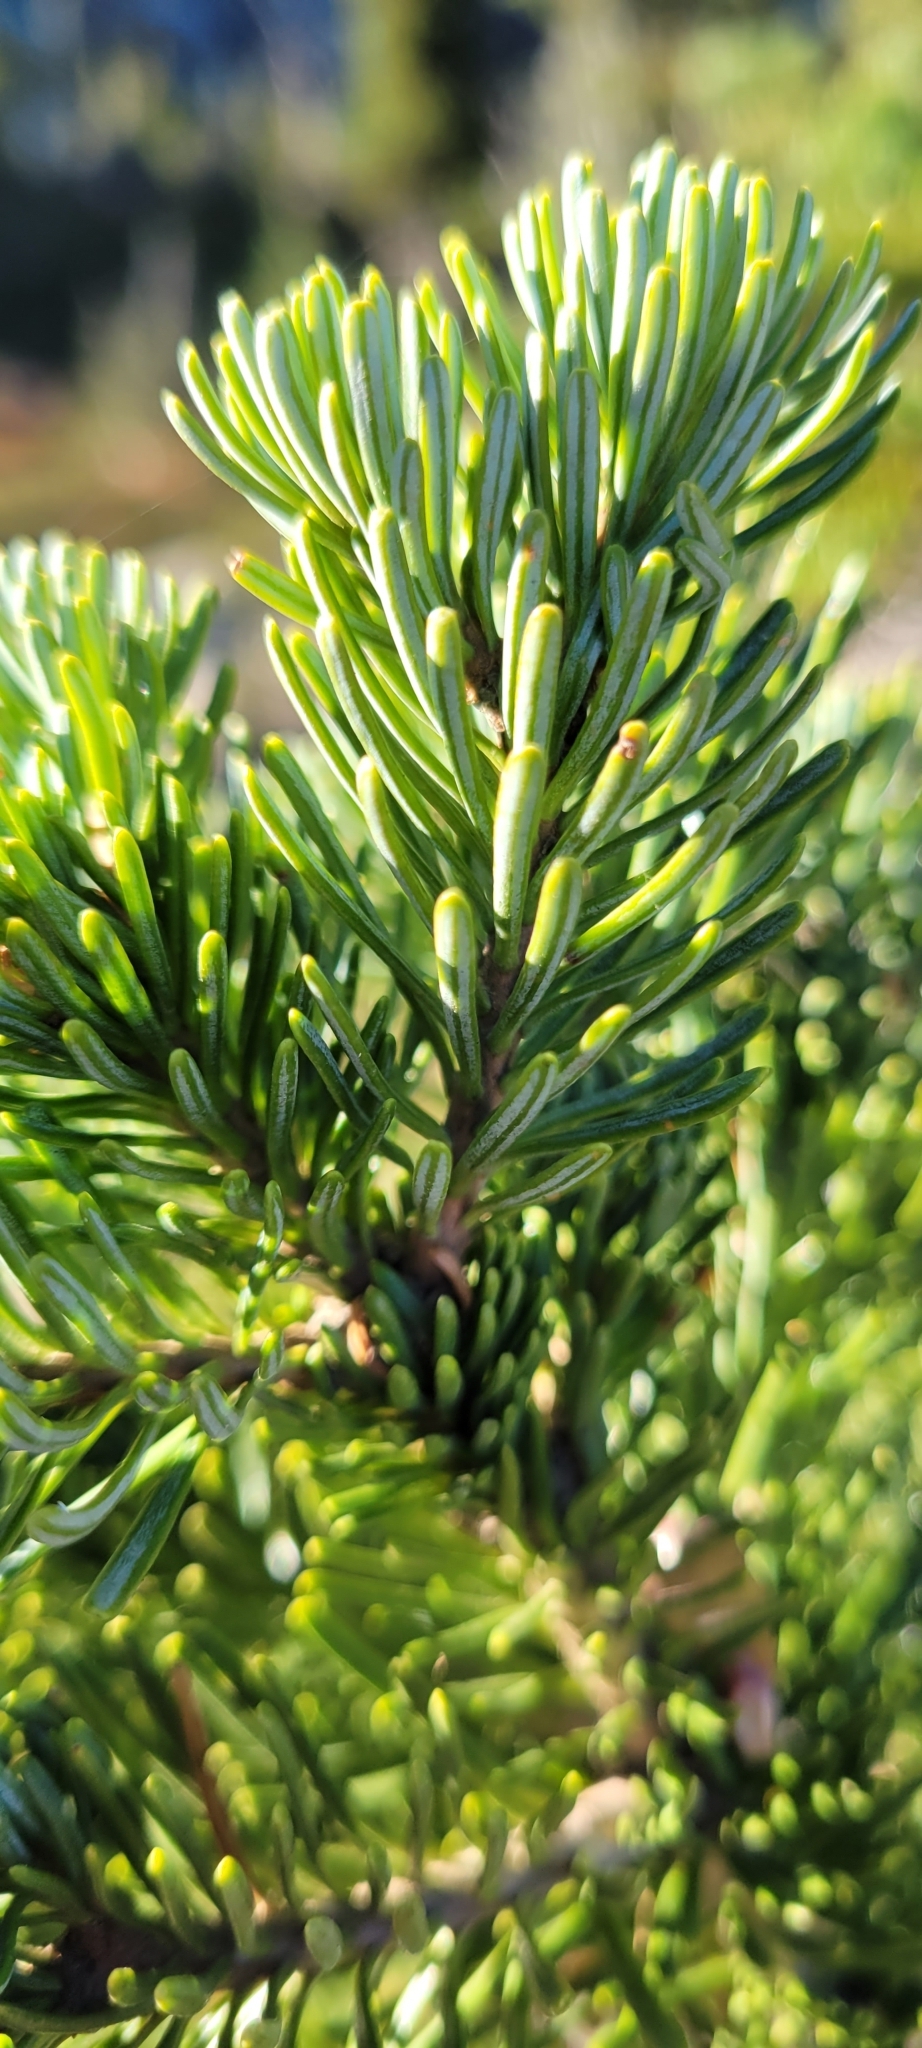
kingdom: Plantae
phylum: Tracheophyta
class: Pinopsida
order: Pinales
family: Pinaceae
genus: Abies
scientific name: Abies lasiocarpa
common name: Subalpine fir
